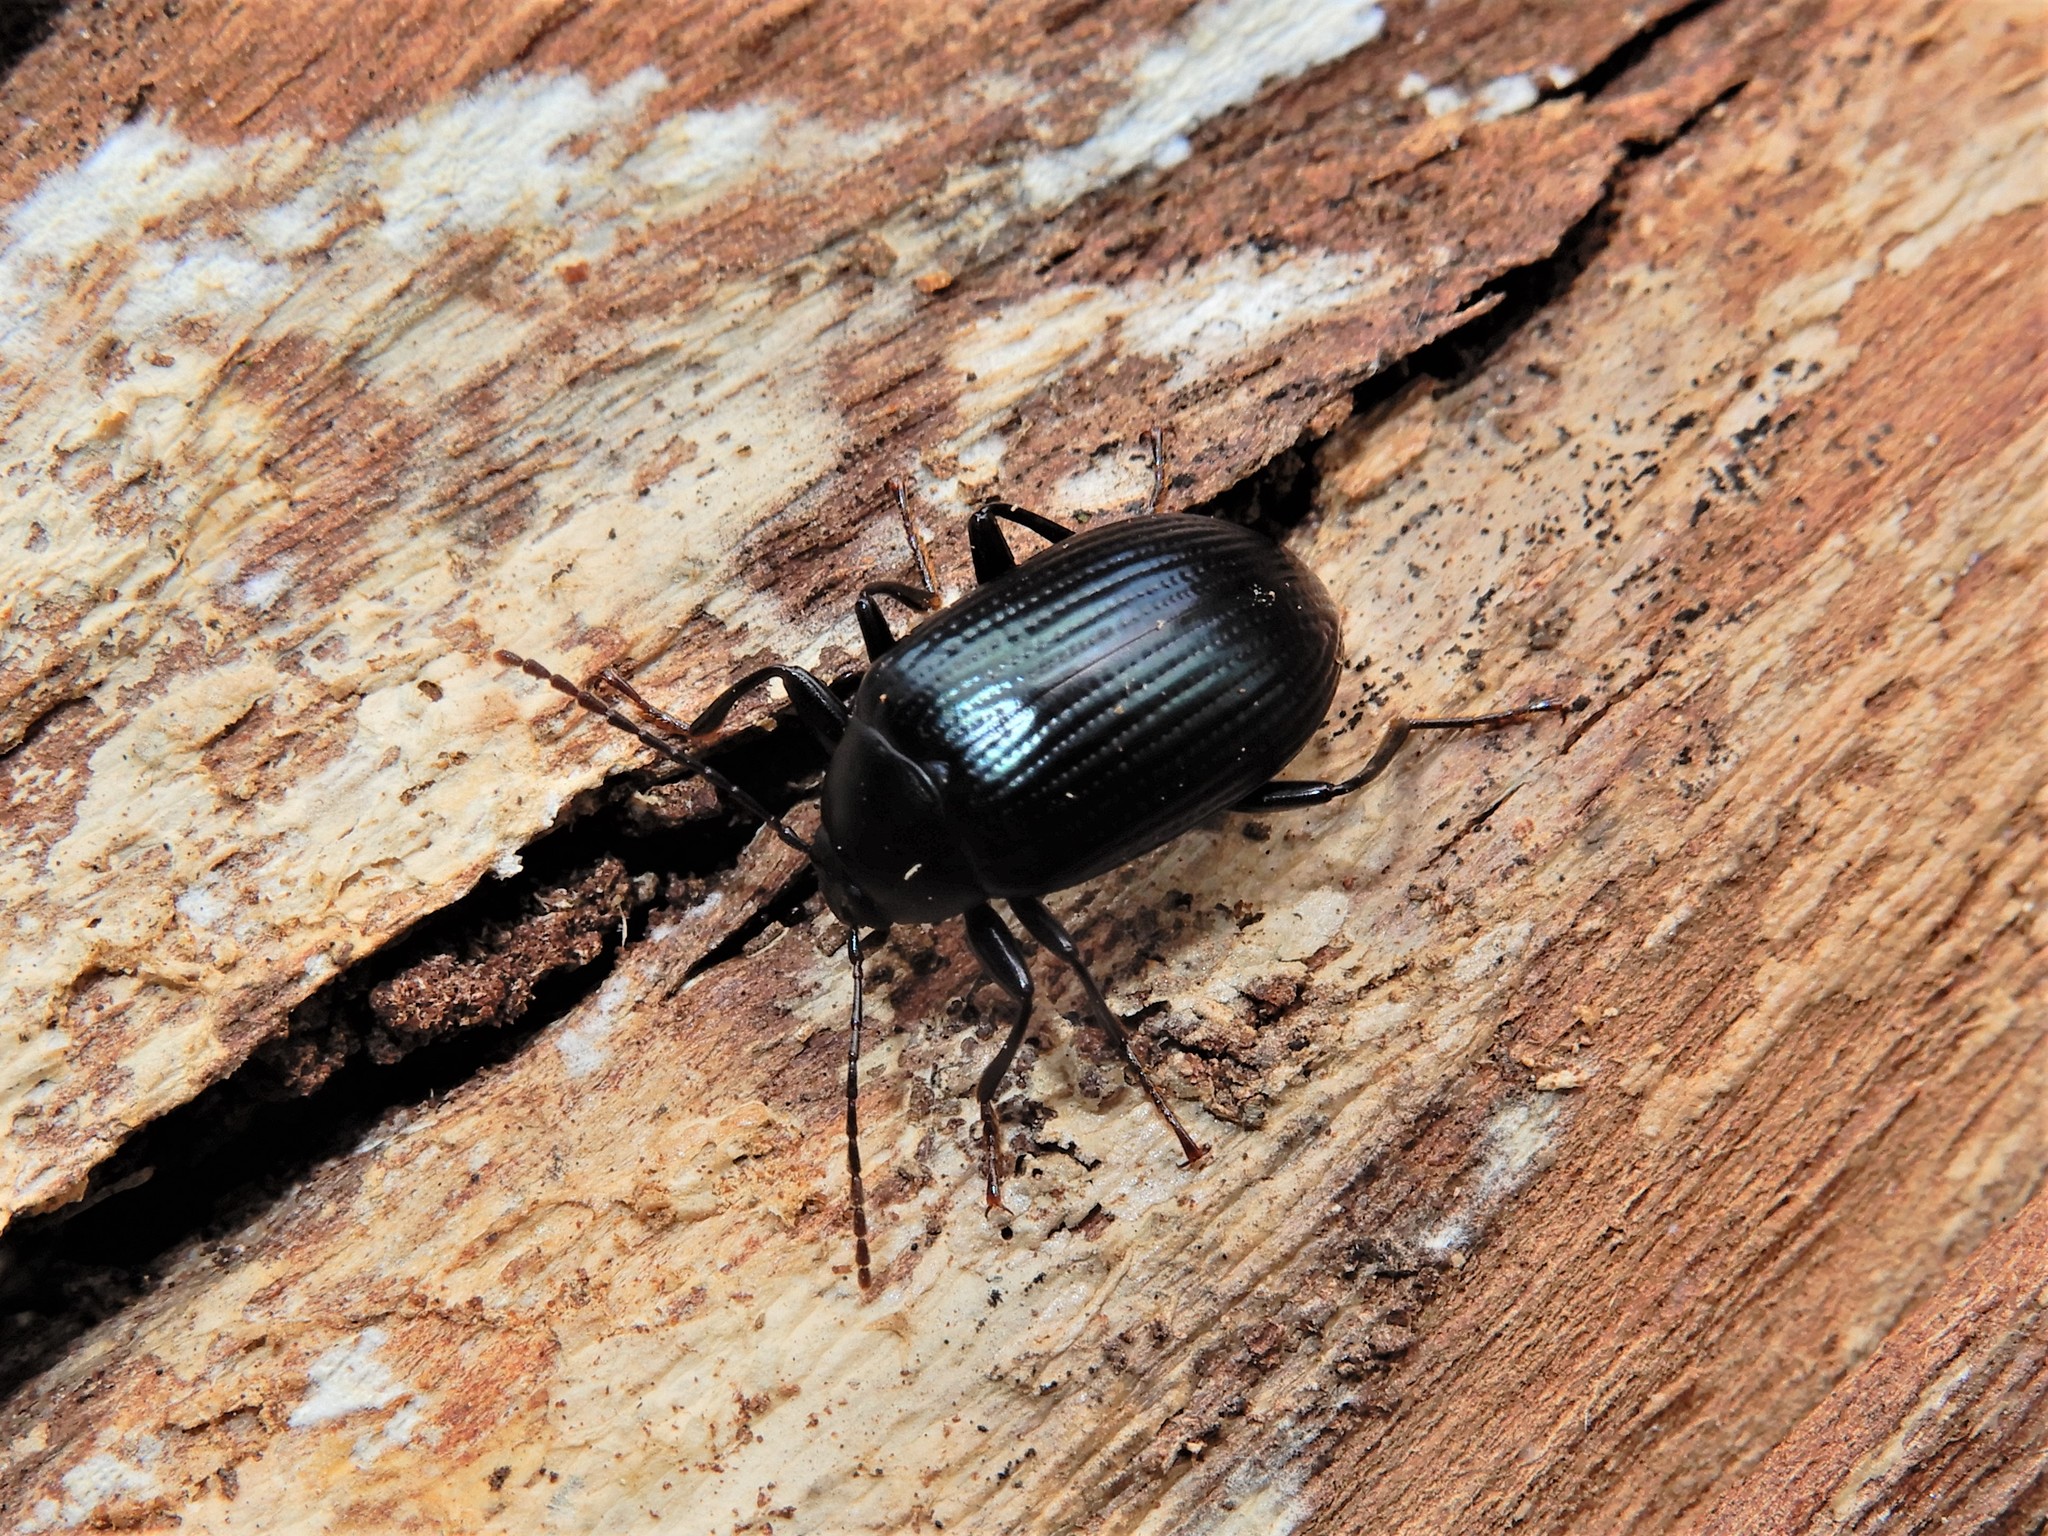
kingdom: Animalia
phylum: Arthropoda
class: Insecta
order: Coleoptera
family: Tenebrionidae
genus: Amarygmus
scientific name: Amarygmus
